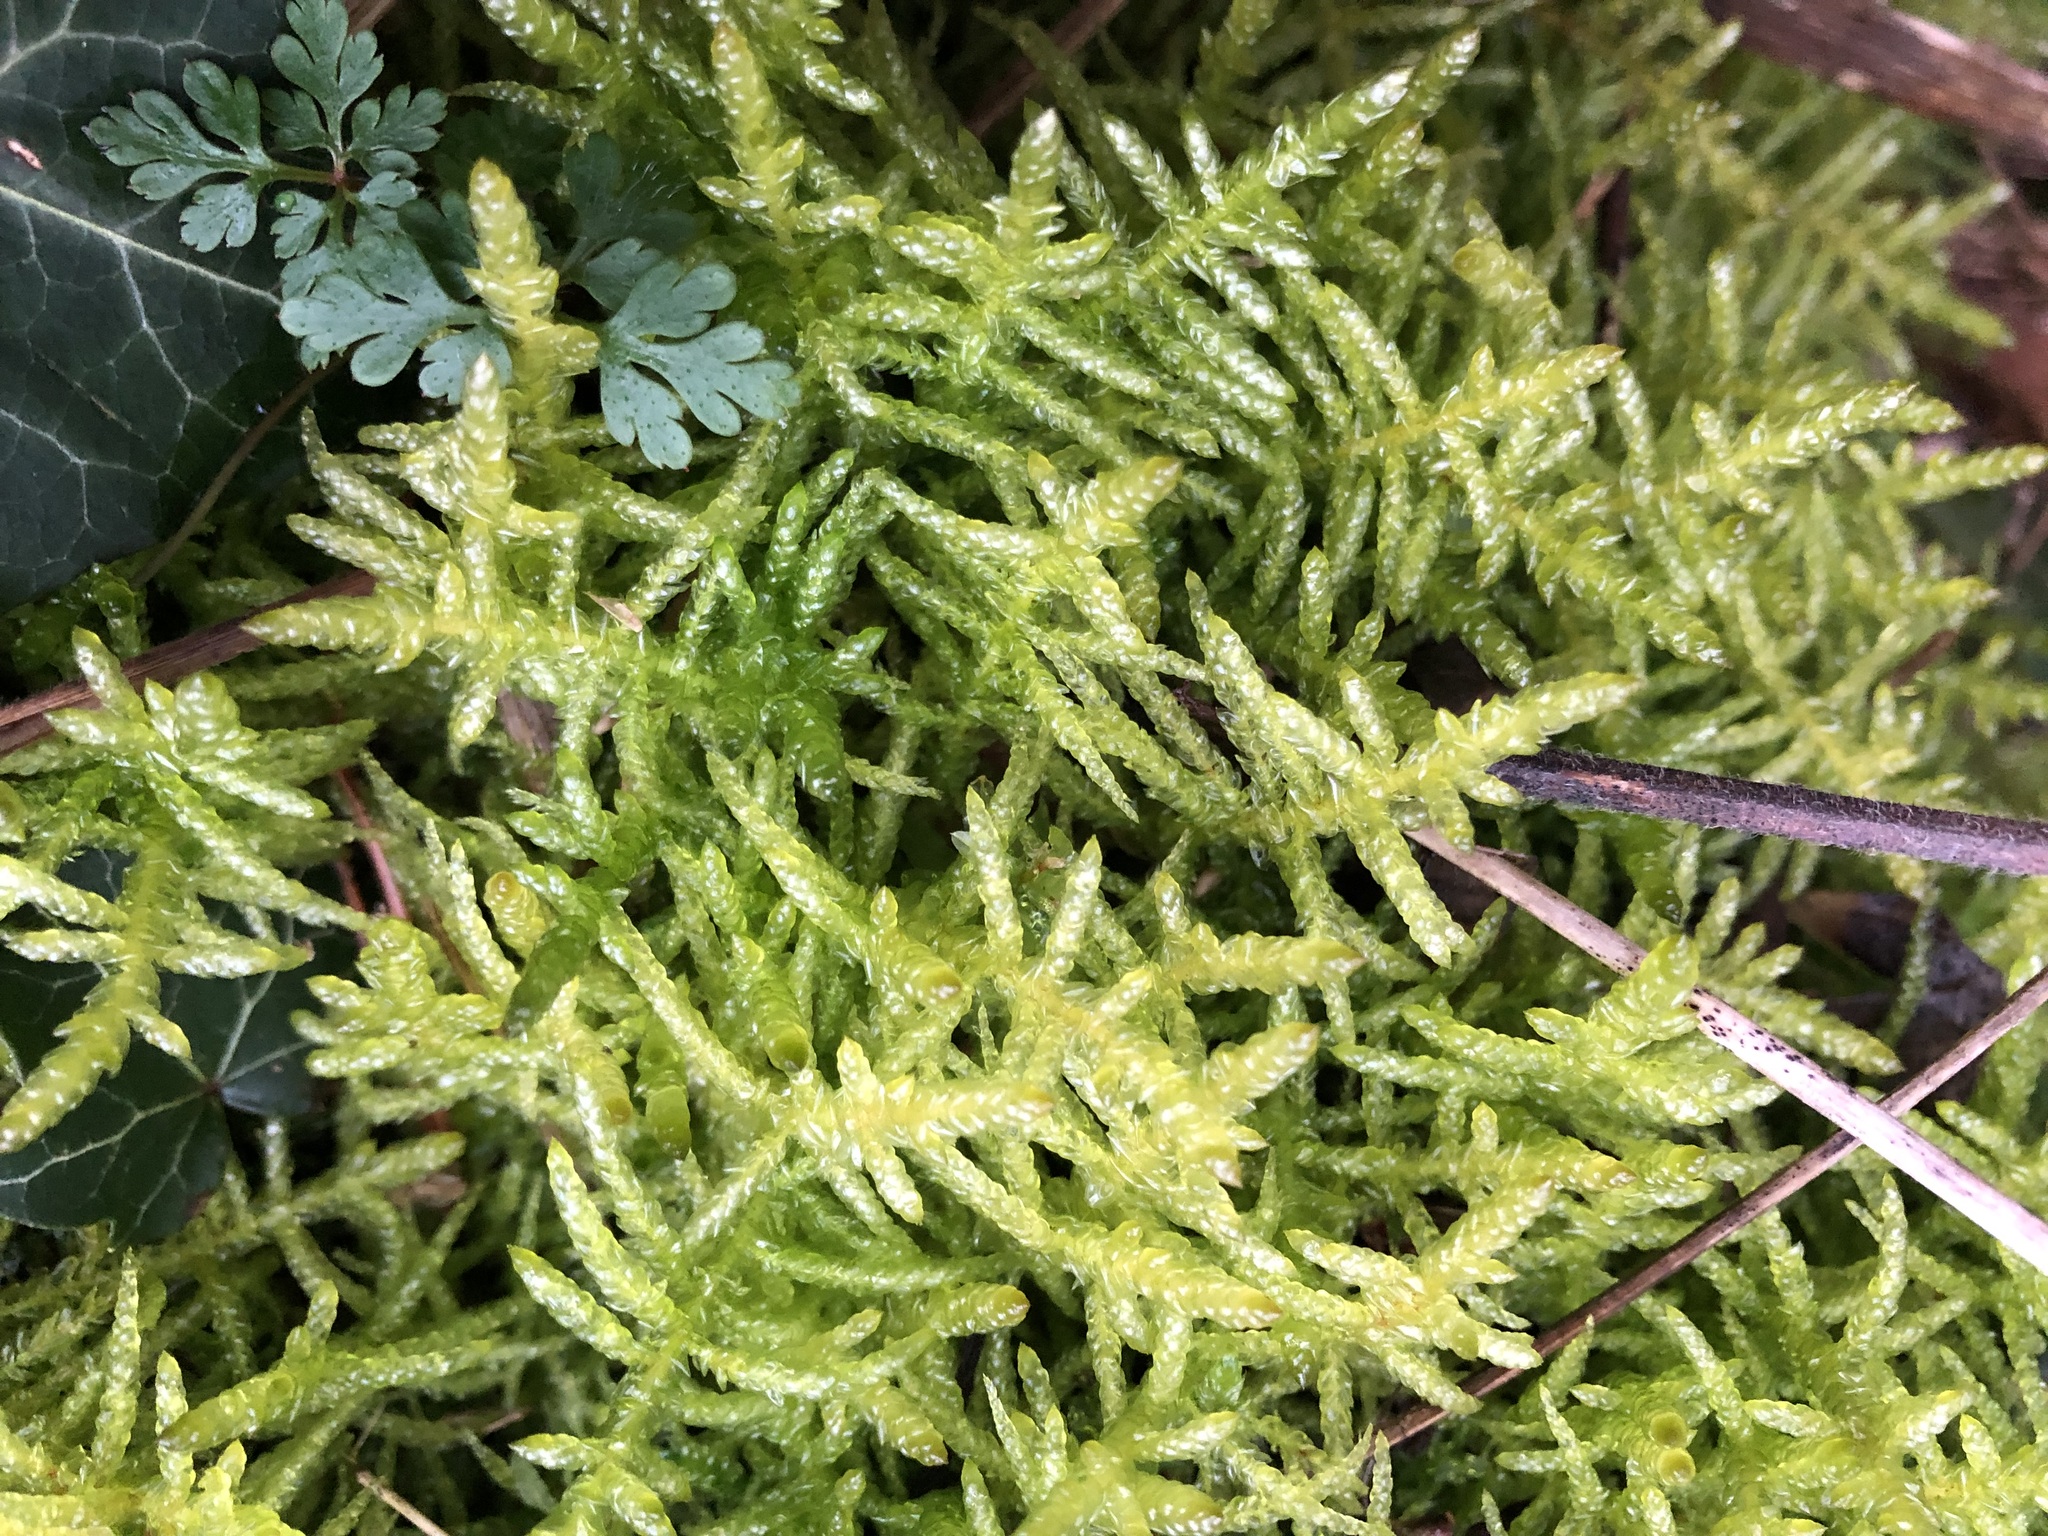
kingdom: Plantae
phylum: Bryophyta
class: Bryopsida
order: Hypnales
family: Brachytheciaceae
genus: Pseudoscleropodium
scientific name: Pseudoscleropodium purum
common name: Neat feather-moss
